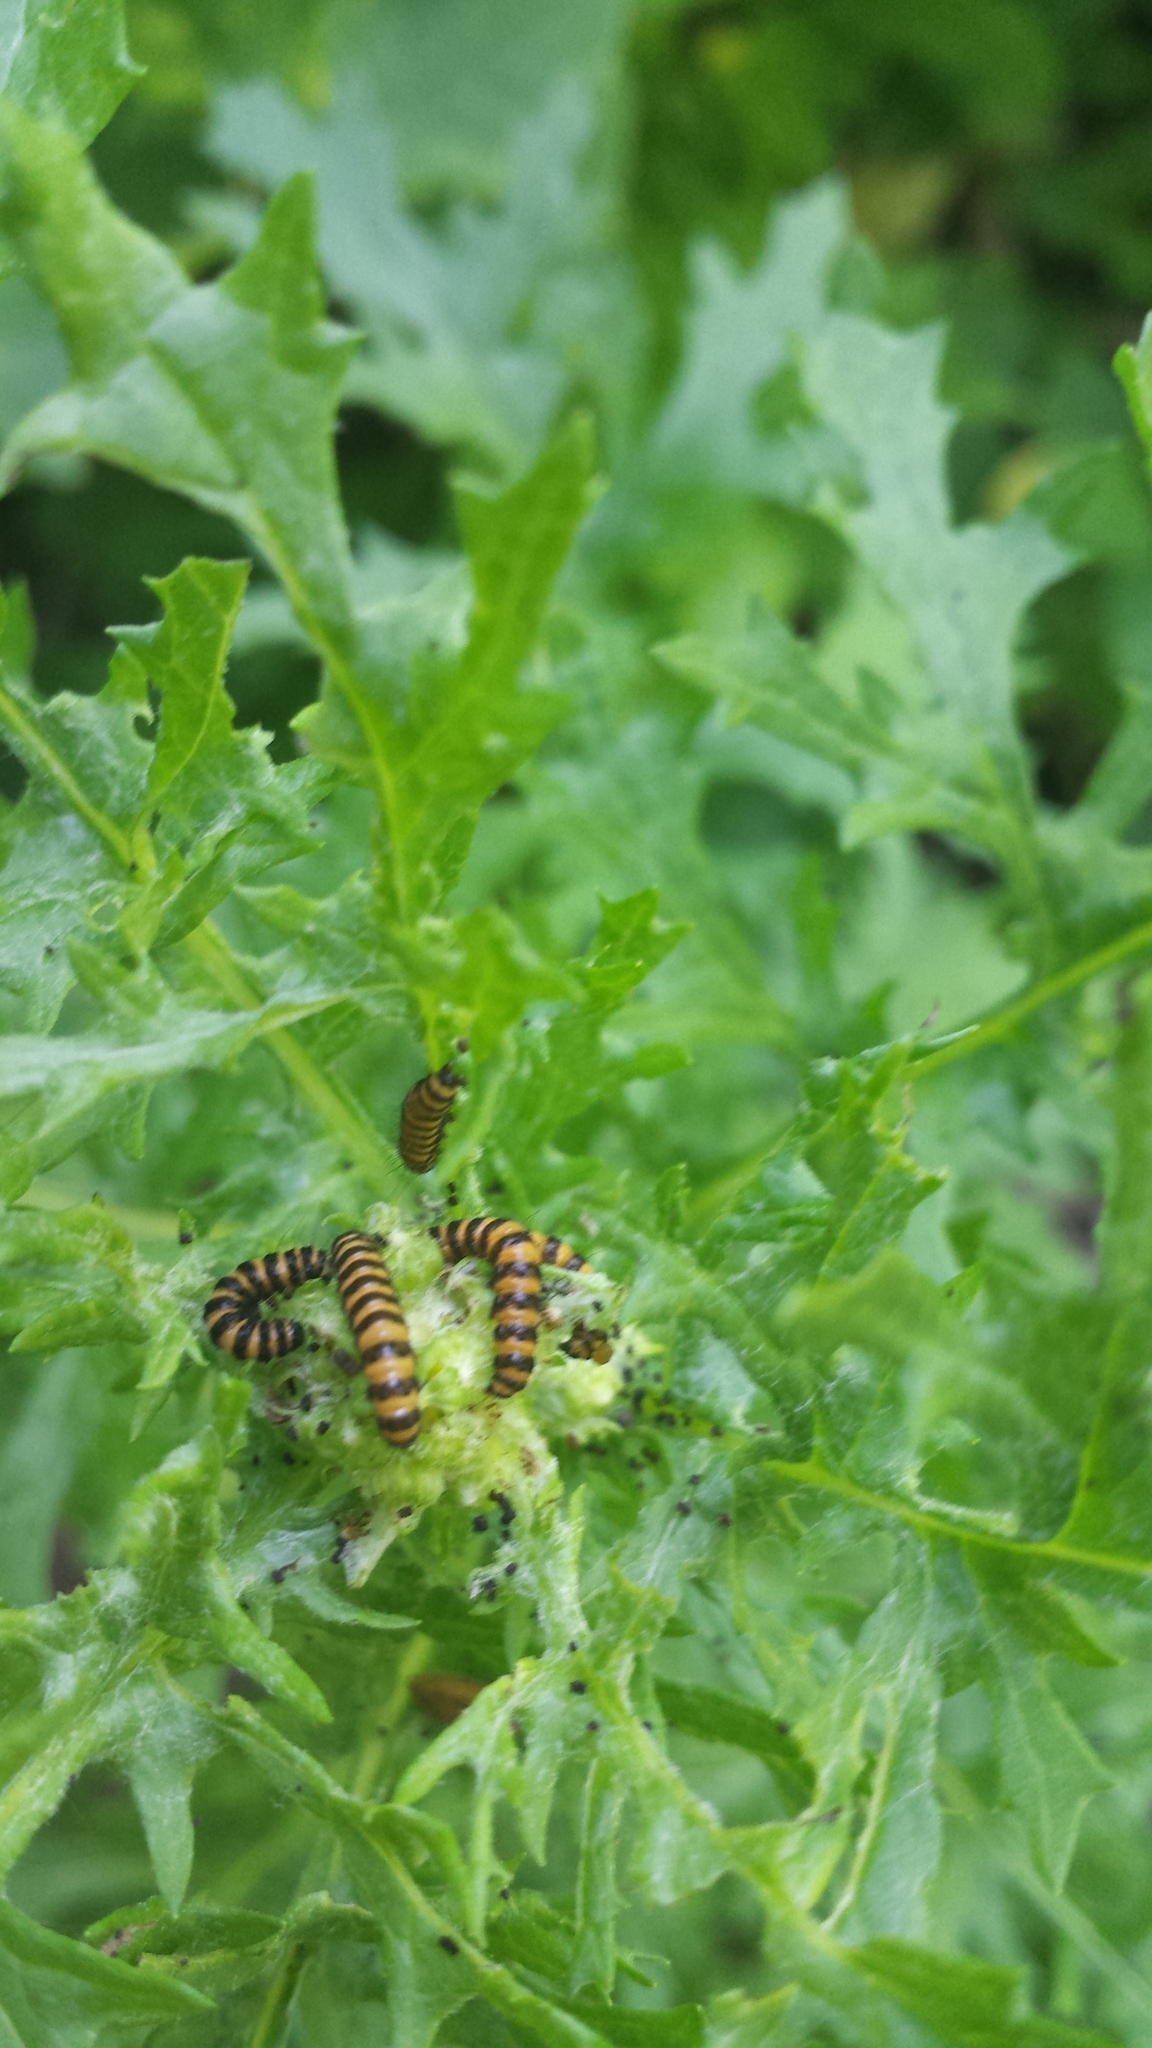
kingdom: Animalia
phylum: Arthropoda
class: Insecta
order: Lepidoptera
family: Erebidae
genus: Tyria
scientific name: Tyria jacobaeae
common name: Cinnabar
